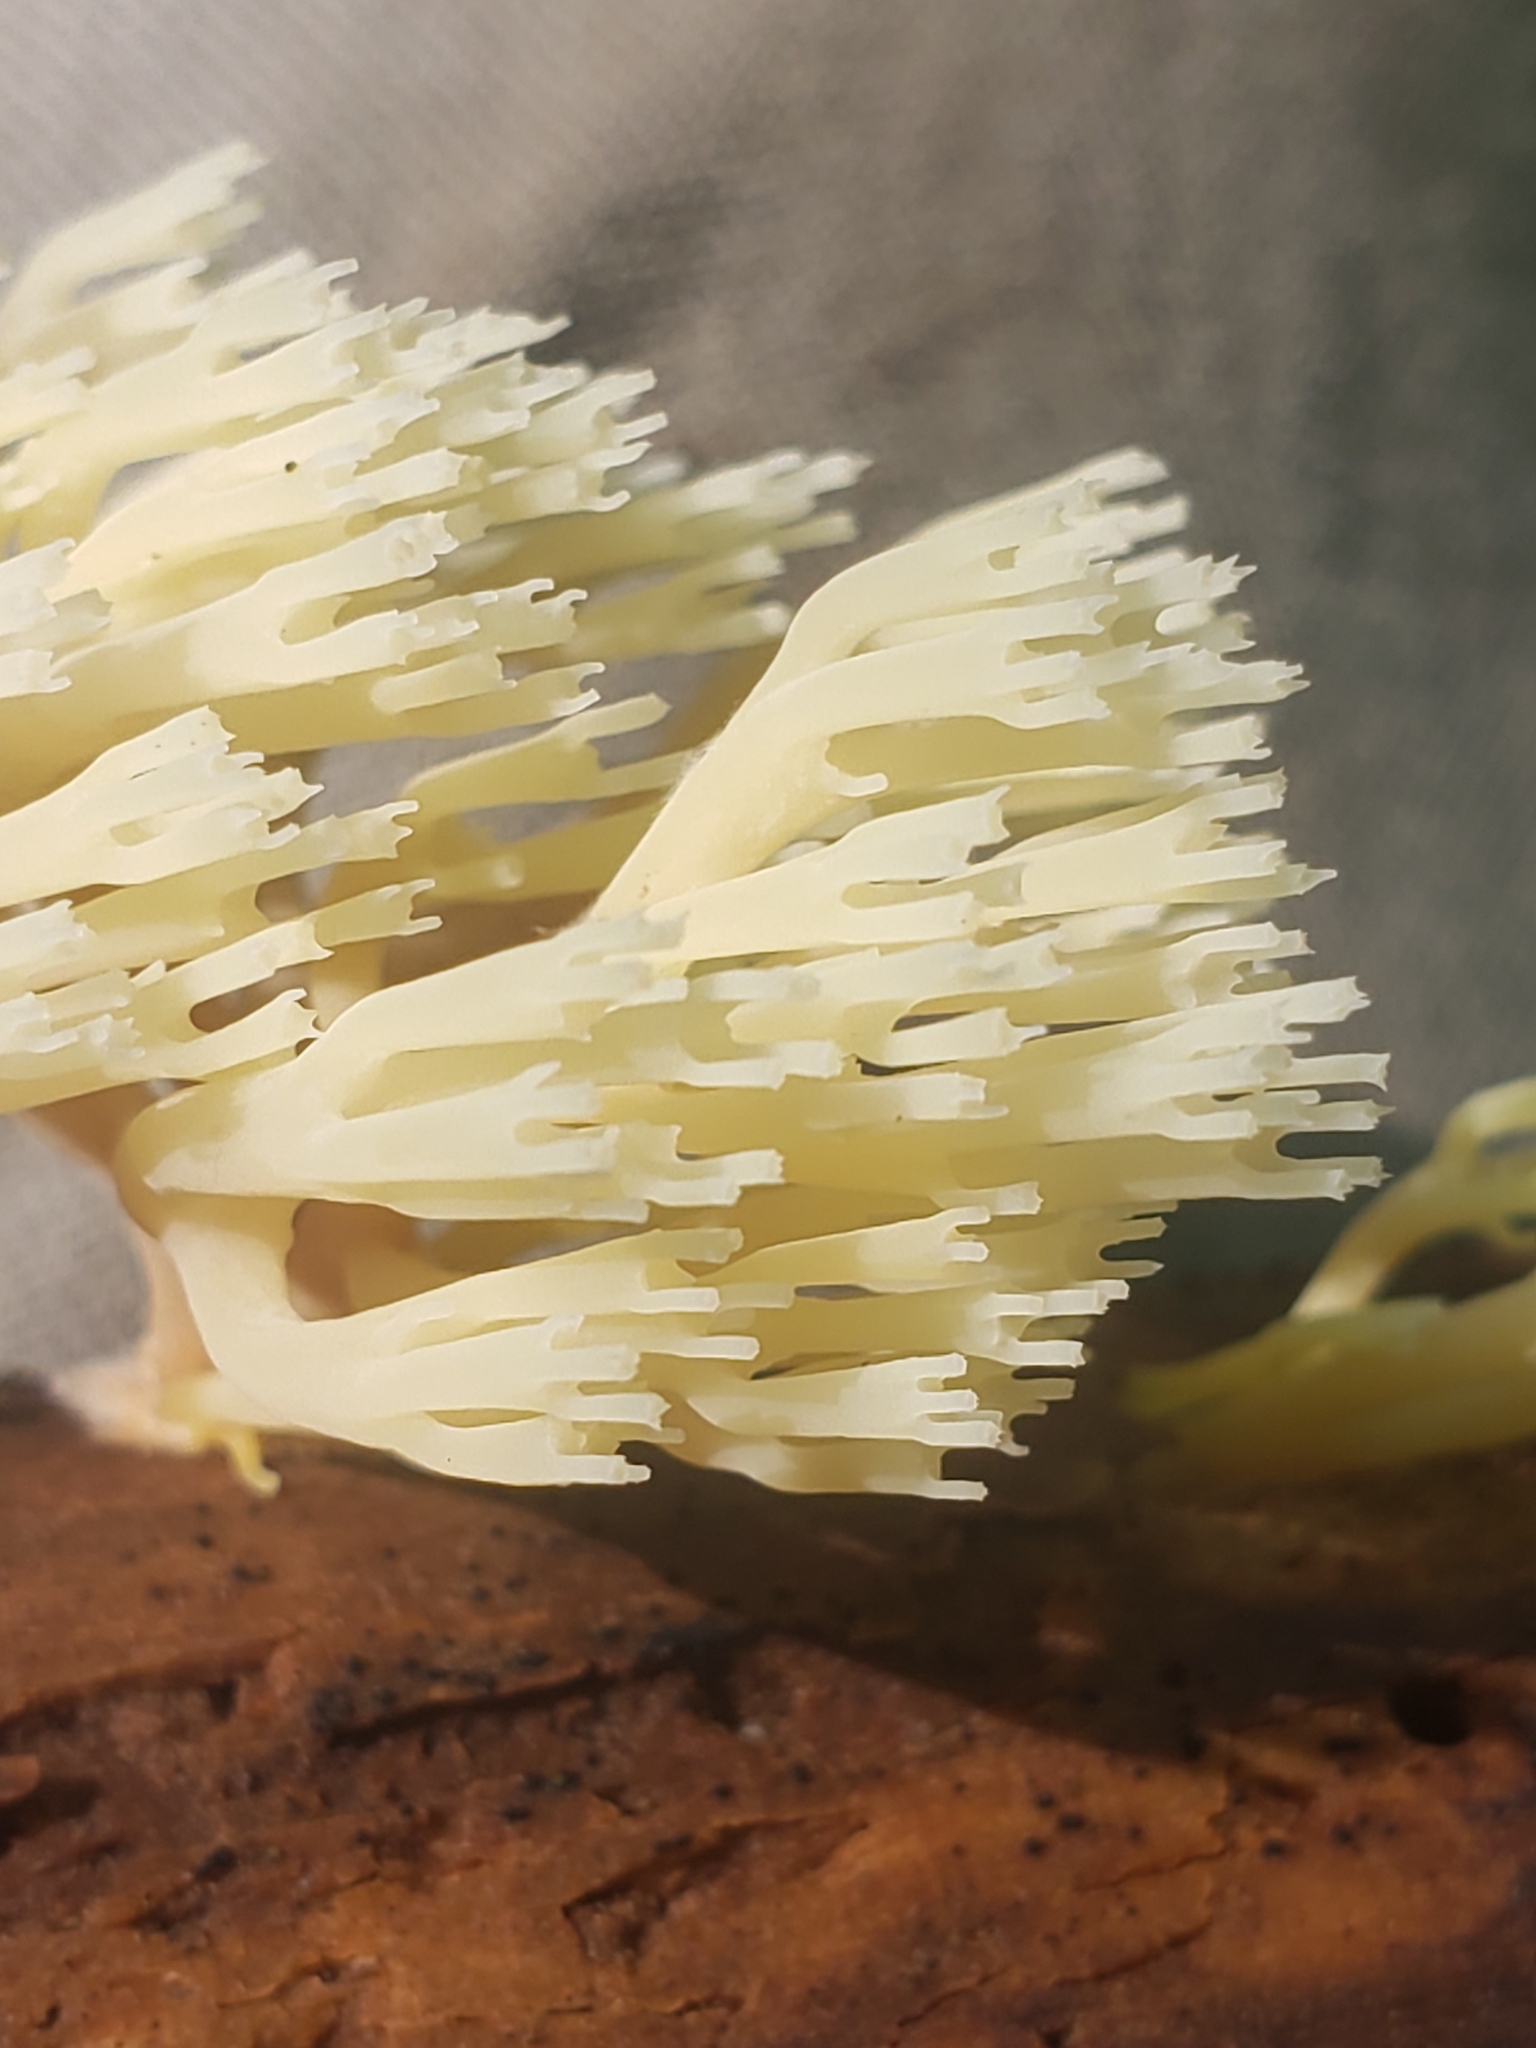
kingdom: Fungi
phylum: Basidiomycota
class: Agaricomycetes
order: Russulales
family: Auriscalpiaceae
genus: Artomyces
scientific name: Artomyces pyxidatus
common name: Crown-tipped coral fungus
